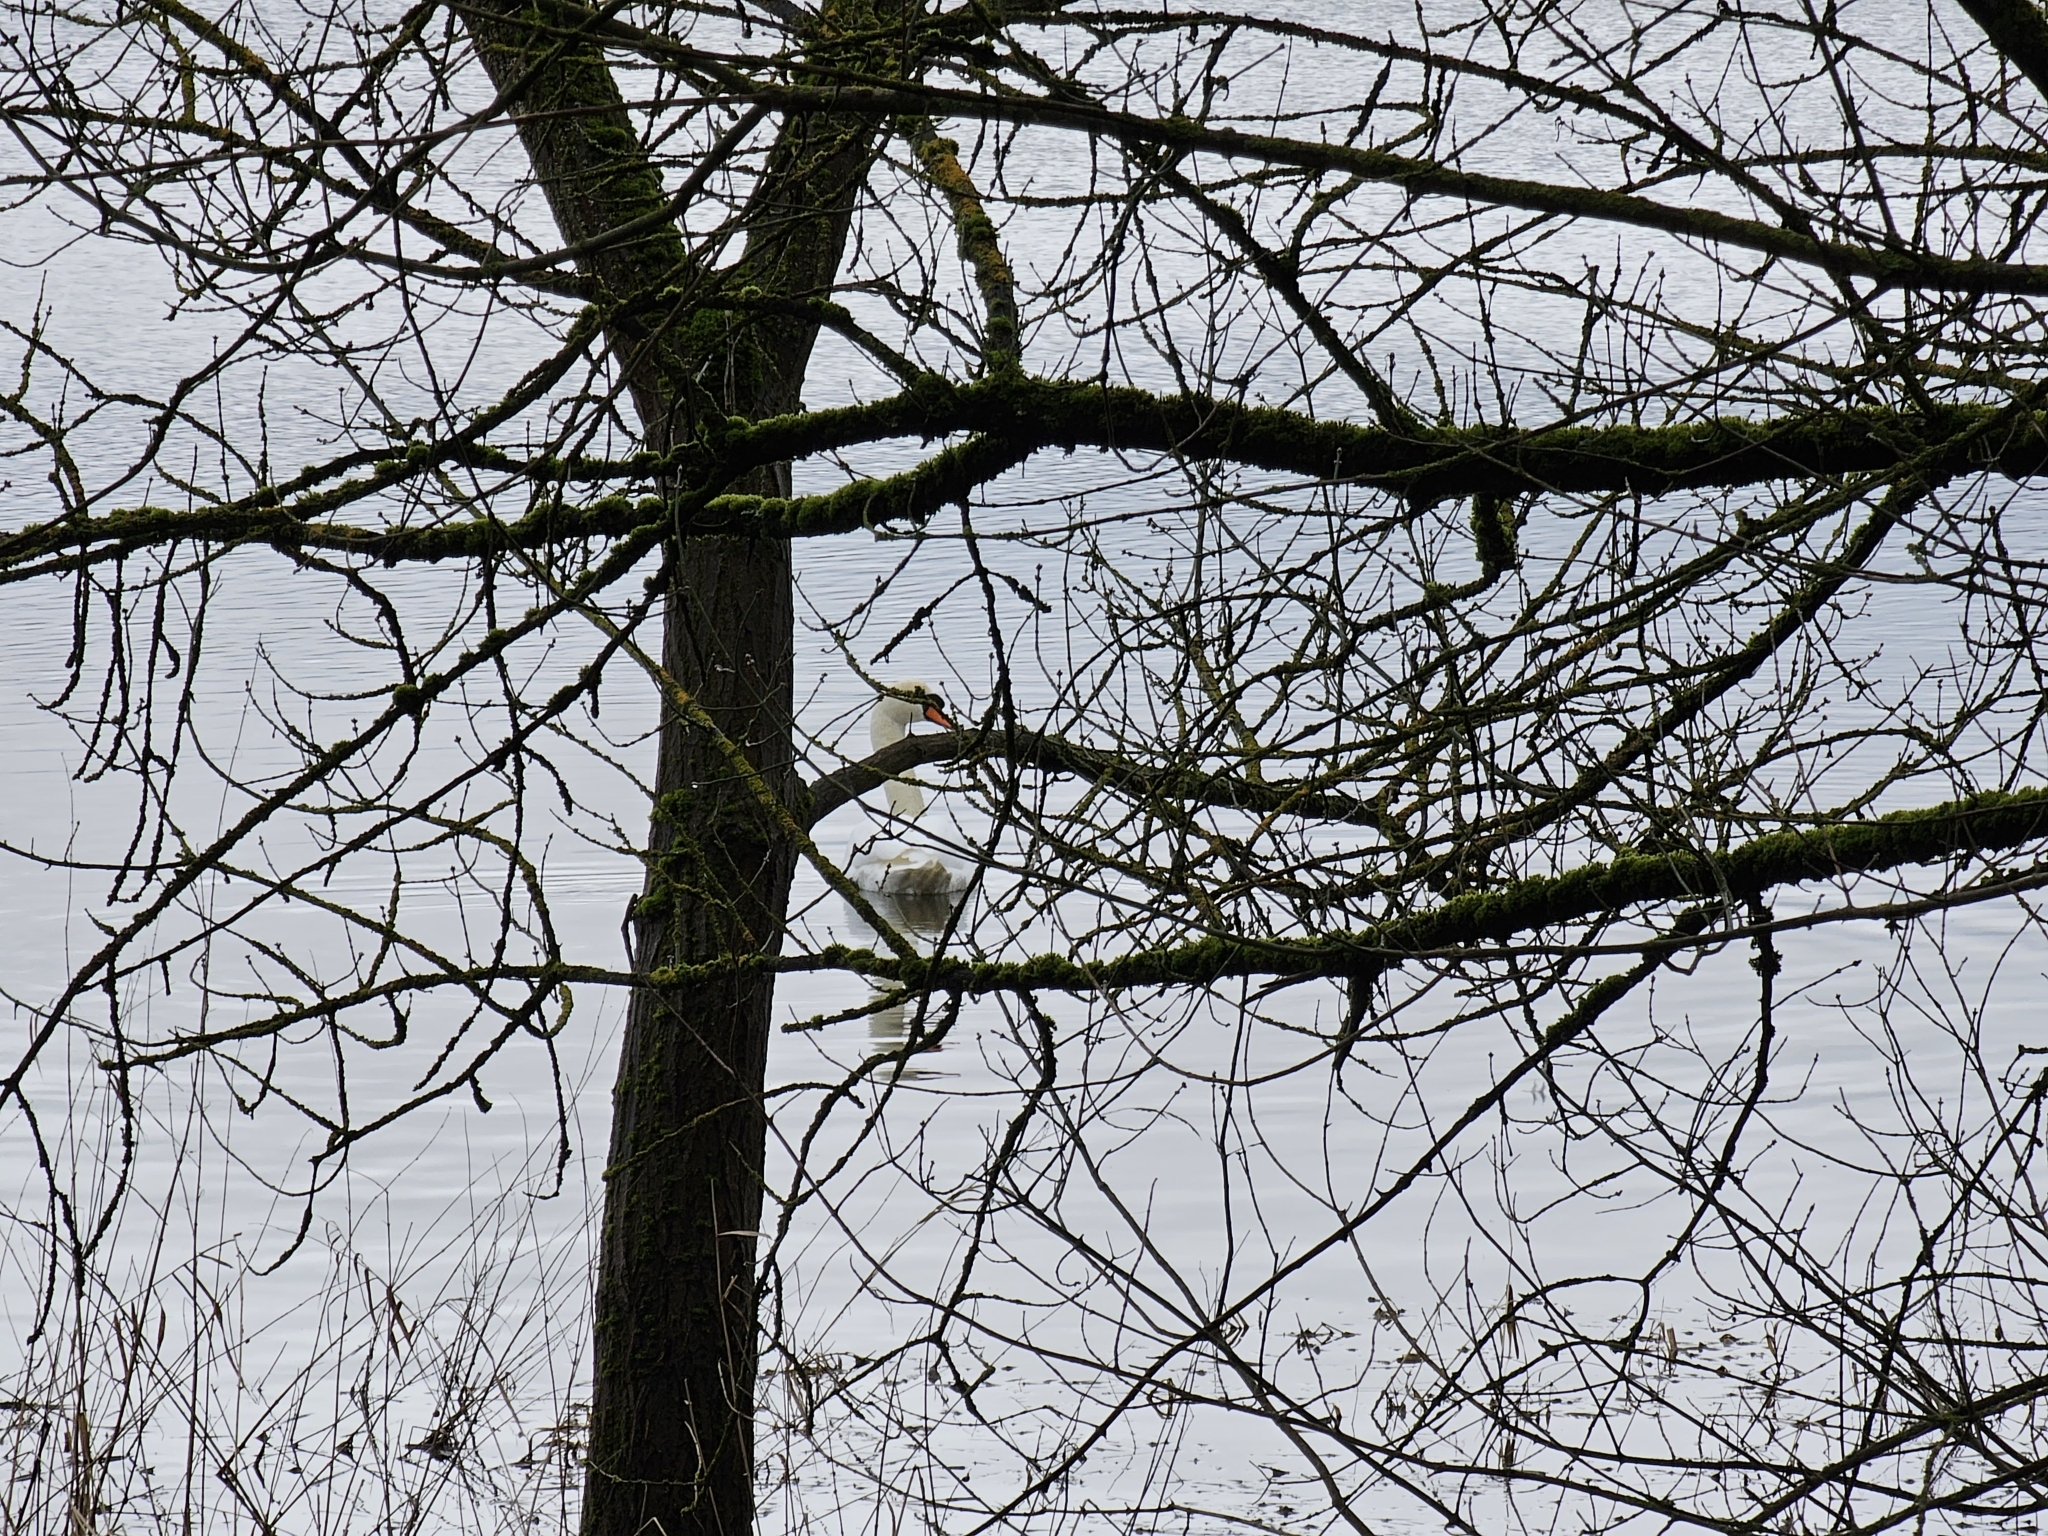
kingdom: Animalia
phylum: Chordata
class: Aves
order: Anseriformes
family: Anatidae
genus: Cygnus
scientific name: Cygnus olor
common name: Mute swan
